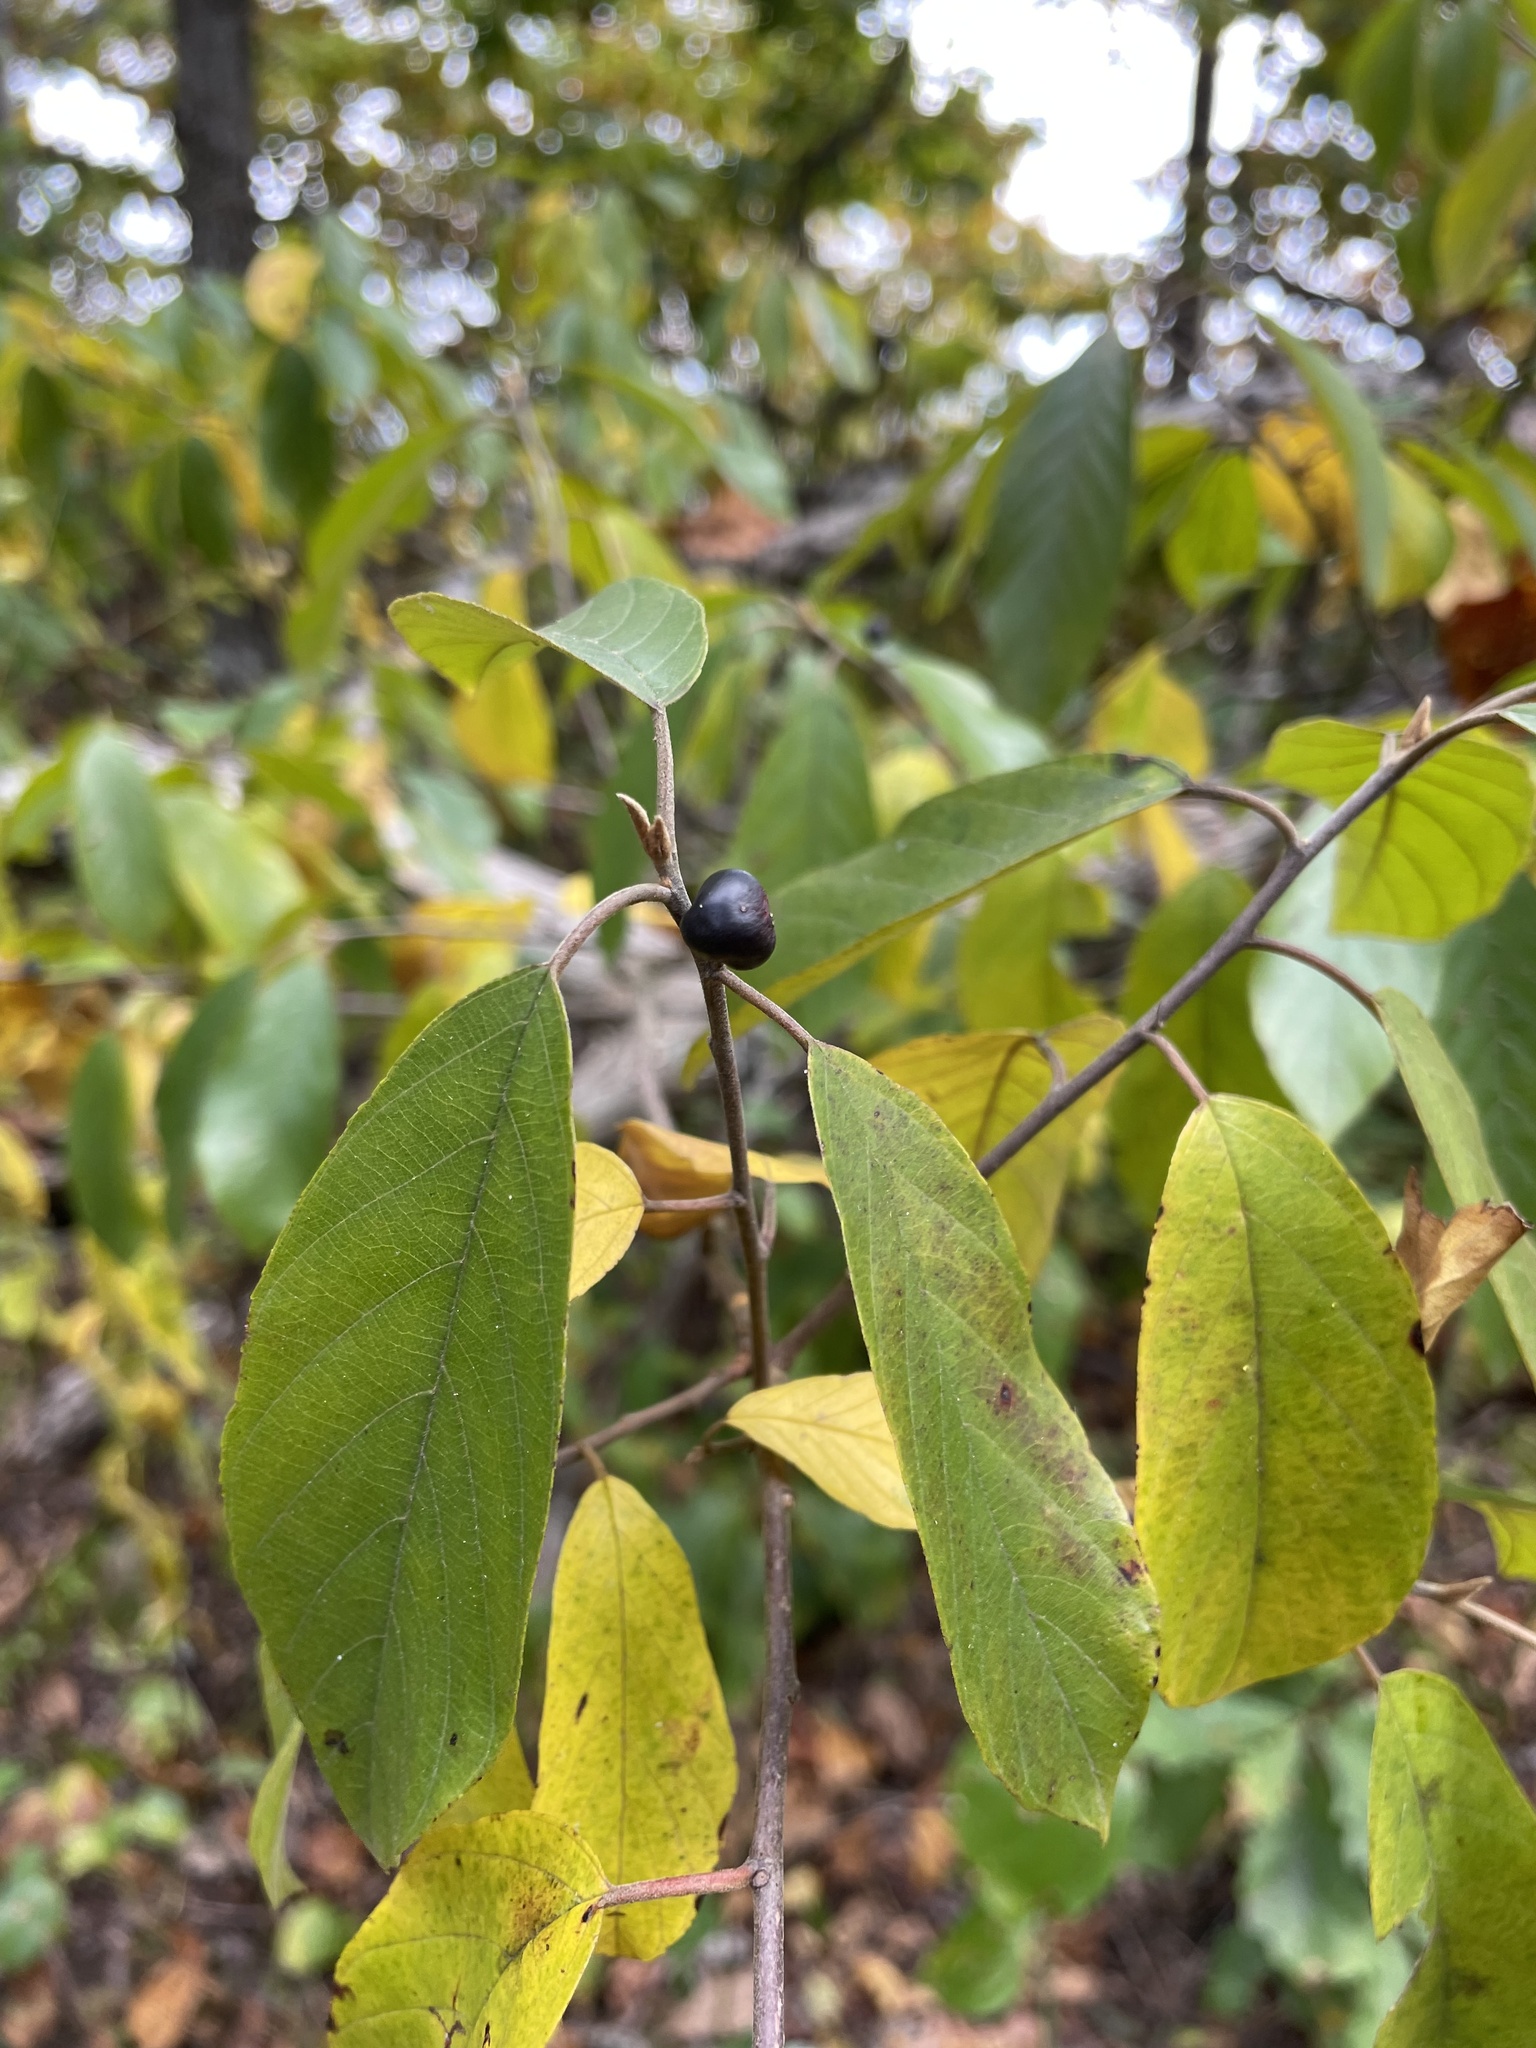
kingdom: Plantae
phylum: Tracheophyta
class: Magnoliopsida
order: Rosales
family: Rhamnaceae
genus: Frangula
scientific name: Frangula caroliniana
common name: Carolina buckthorn
